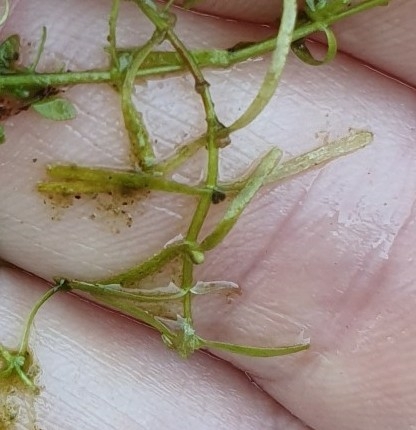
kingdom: Plantae
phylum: Tracheophyta
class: Magnoliopsida
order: Lamiales
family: Plantaginaceae
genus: Callitriche
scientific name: Callitriche palustris
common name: Spring water-starwort
